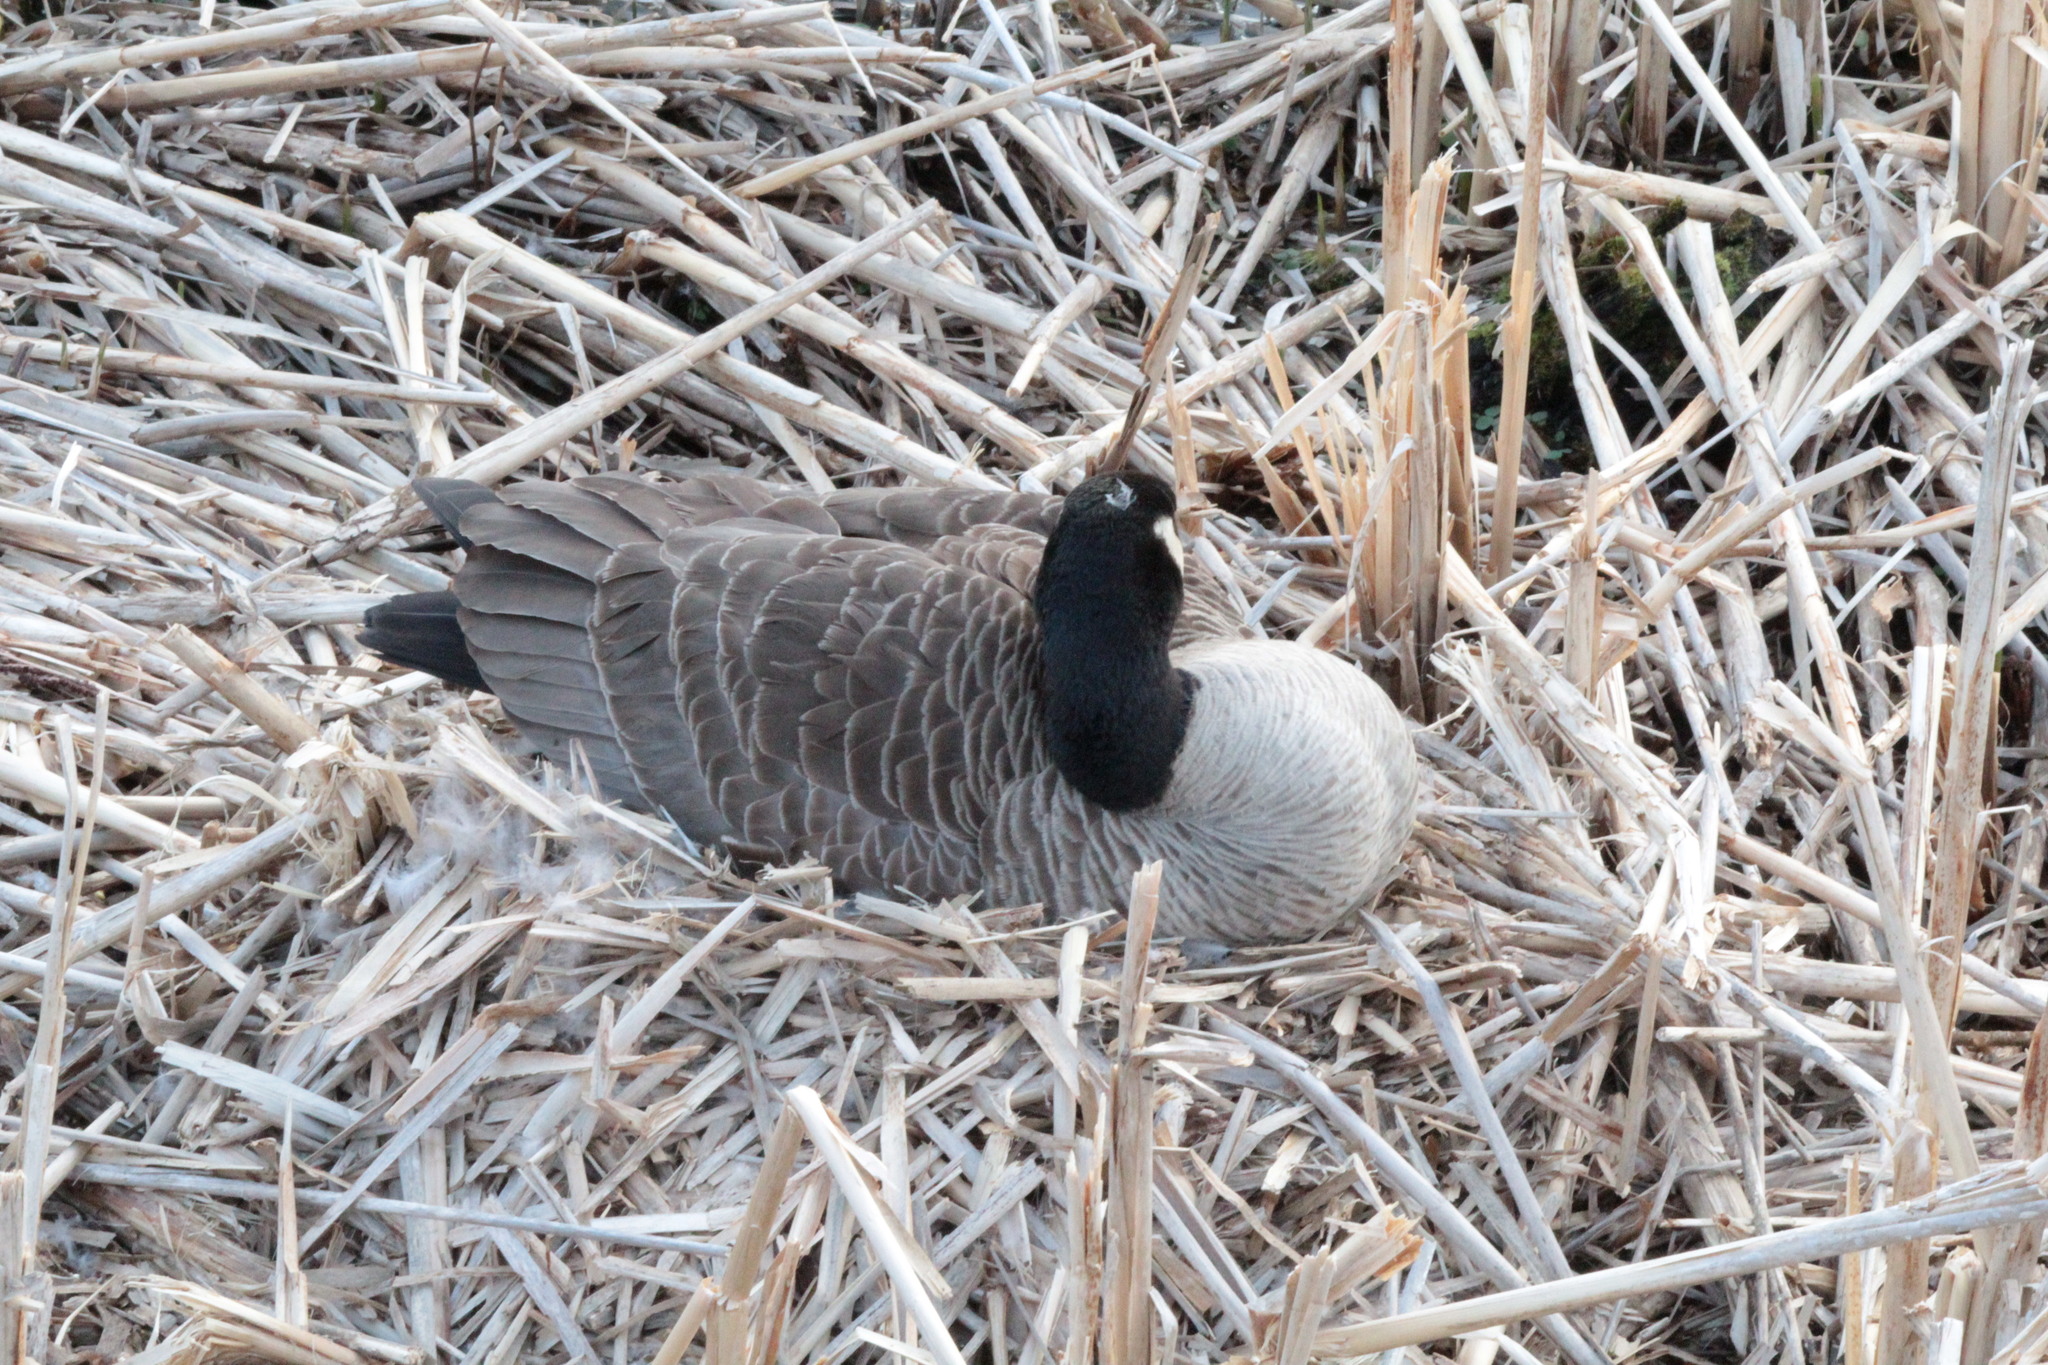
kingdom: Animalia
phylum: Chordata
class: Aves
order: Anseriformes
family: Anatidae
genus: Branta
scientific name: Branta canadensis
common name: Canada goose
